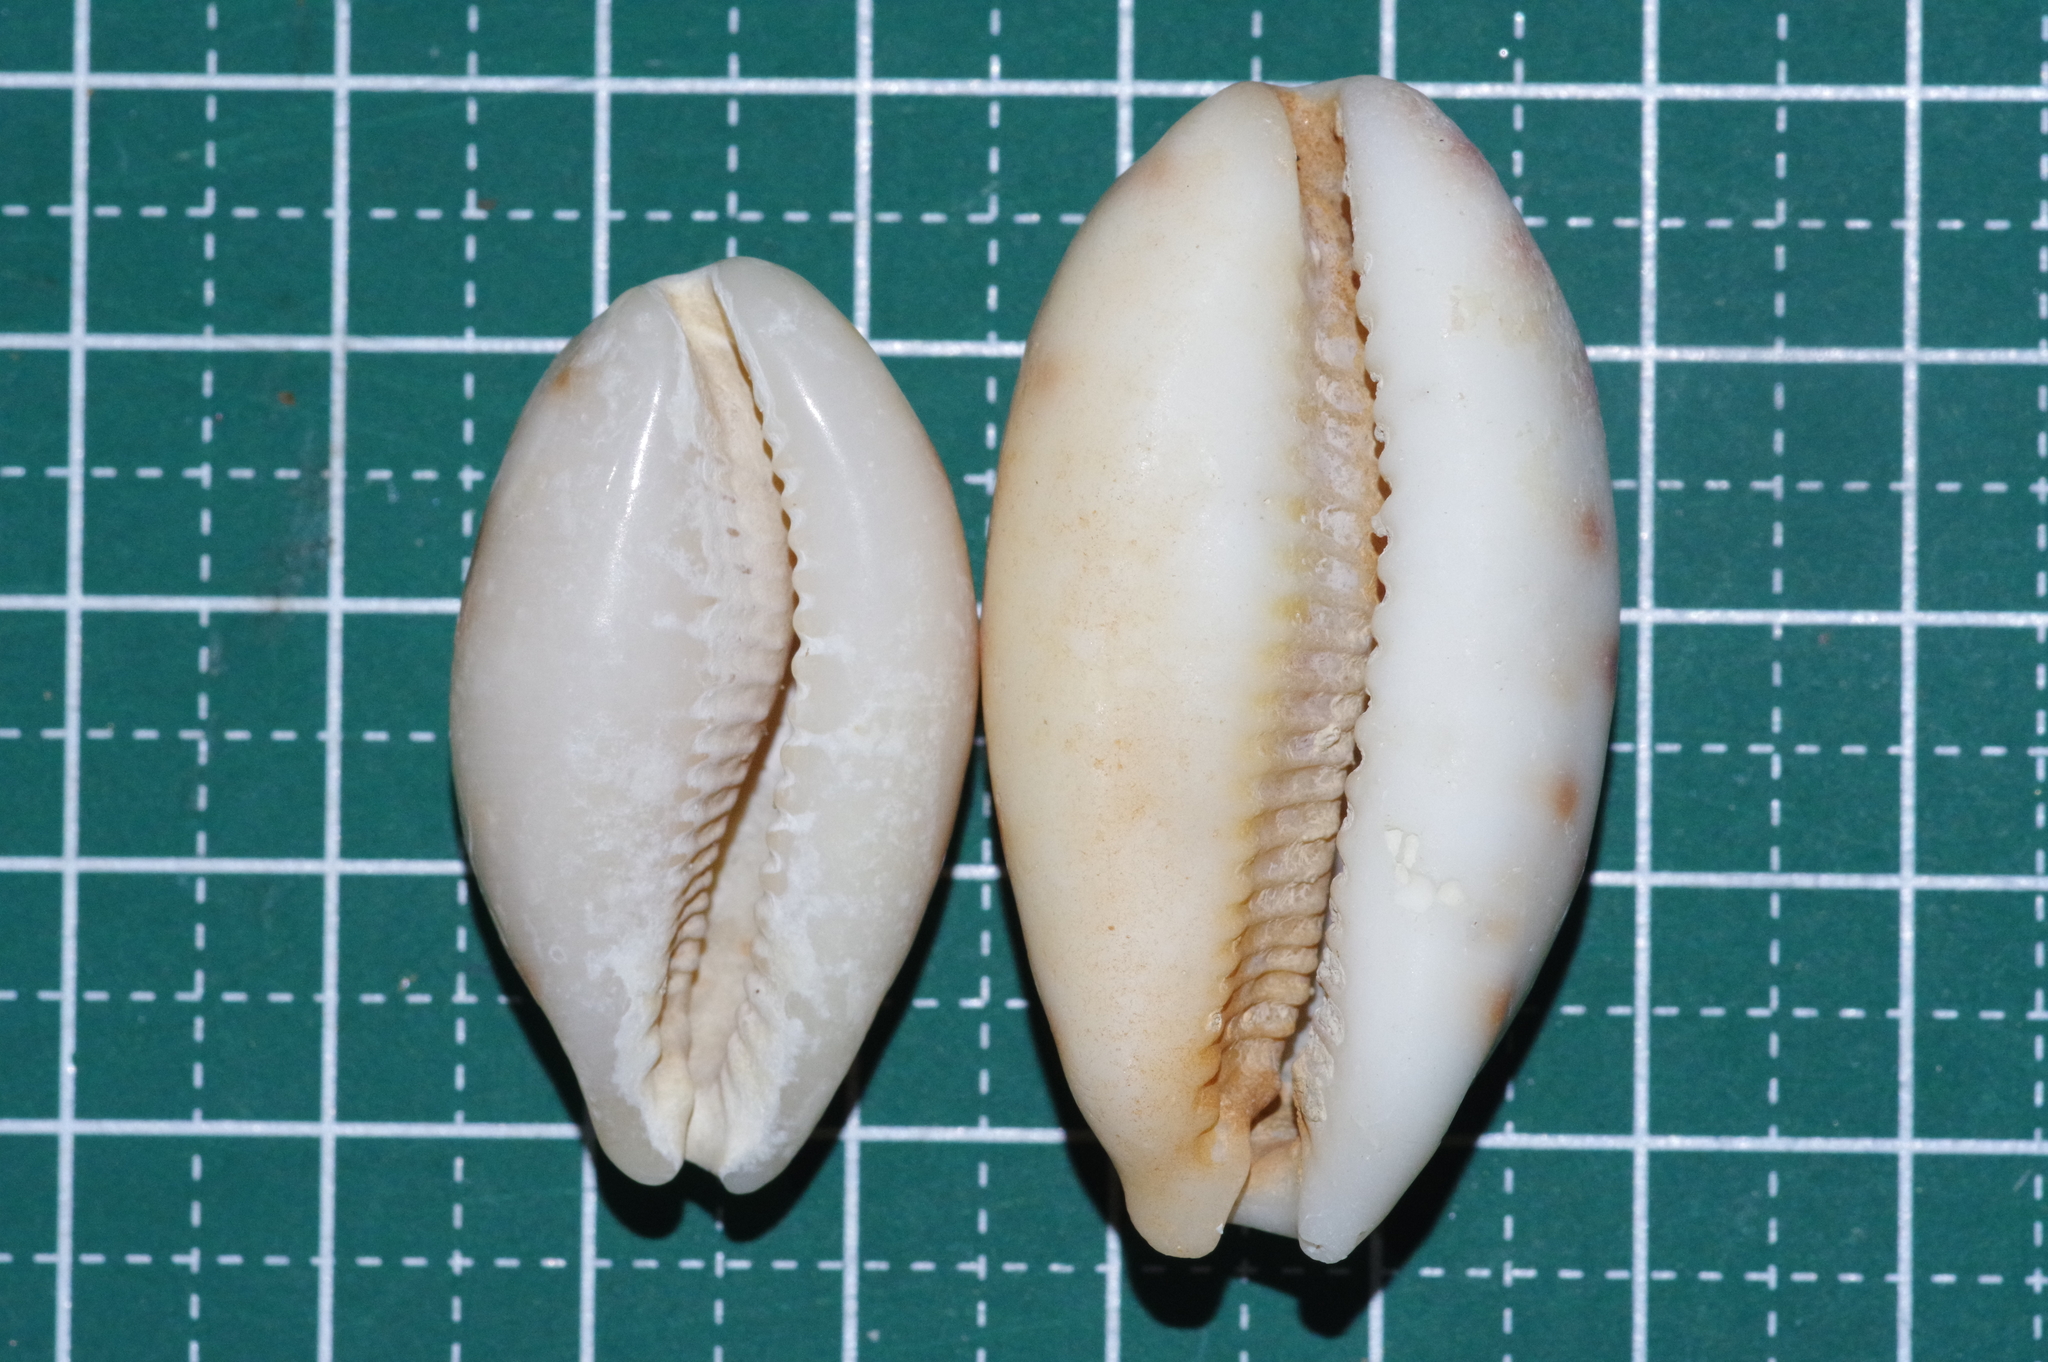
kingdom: Animalia
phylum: Mollusca
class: Gastropoda
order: Littorinimorpha
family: Cypraeidae
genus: Lyncina
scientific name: Lyncina lynx
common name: Bobcat cowrie
